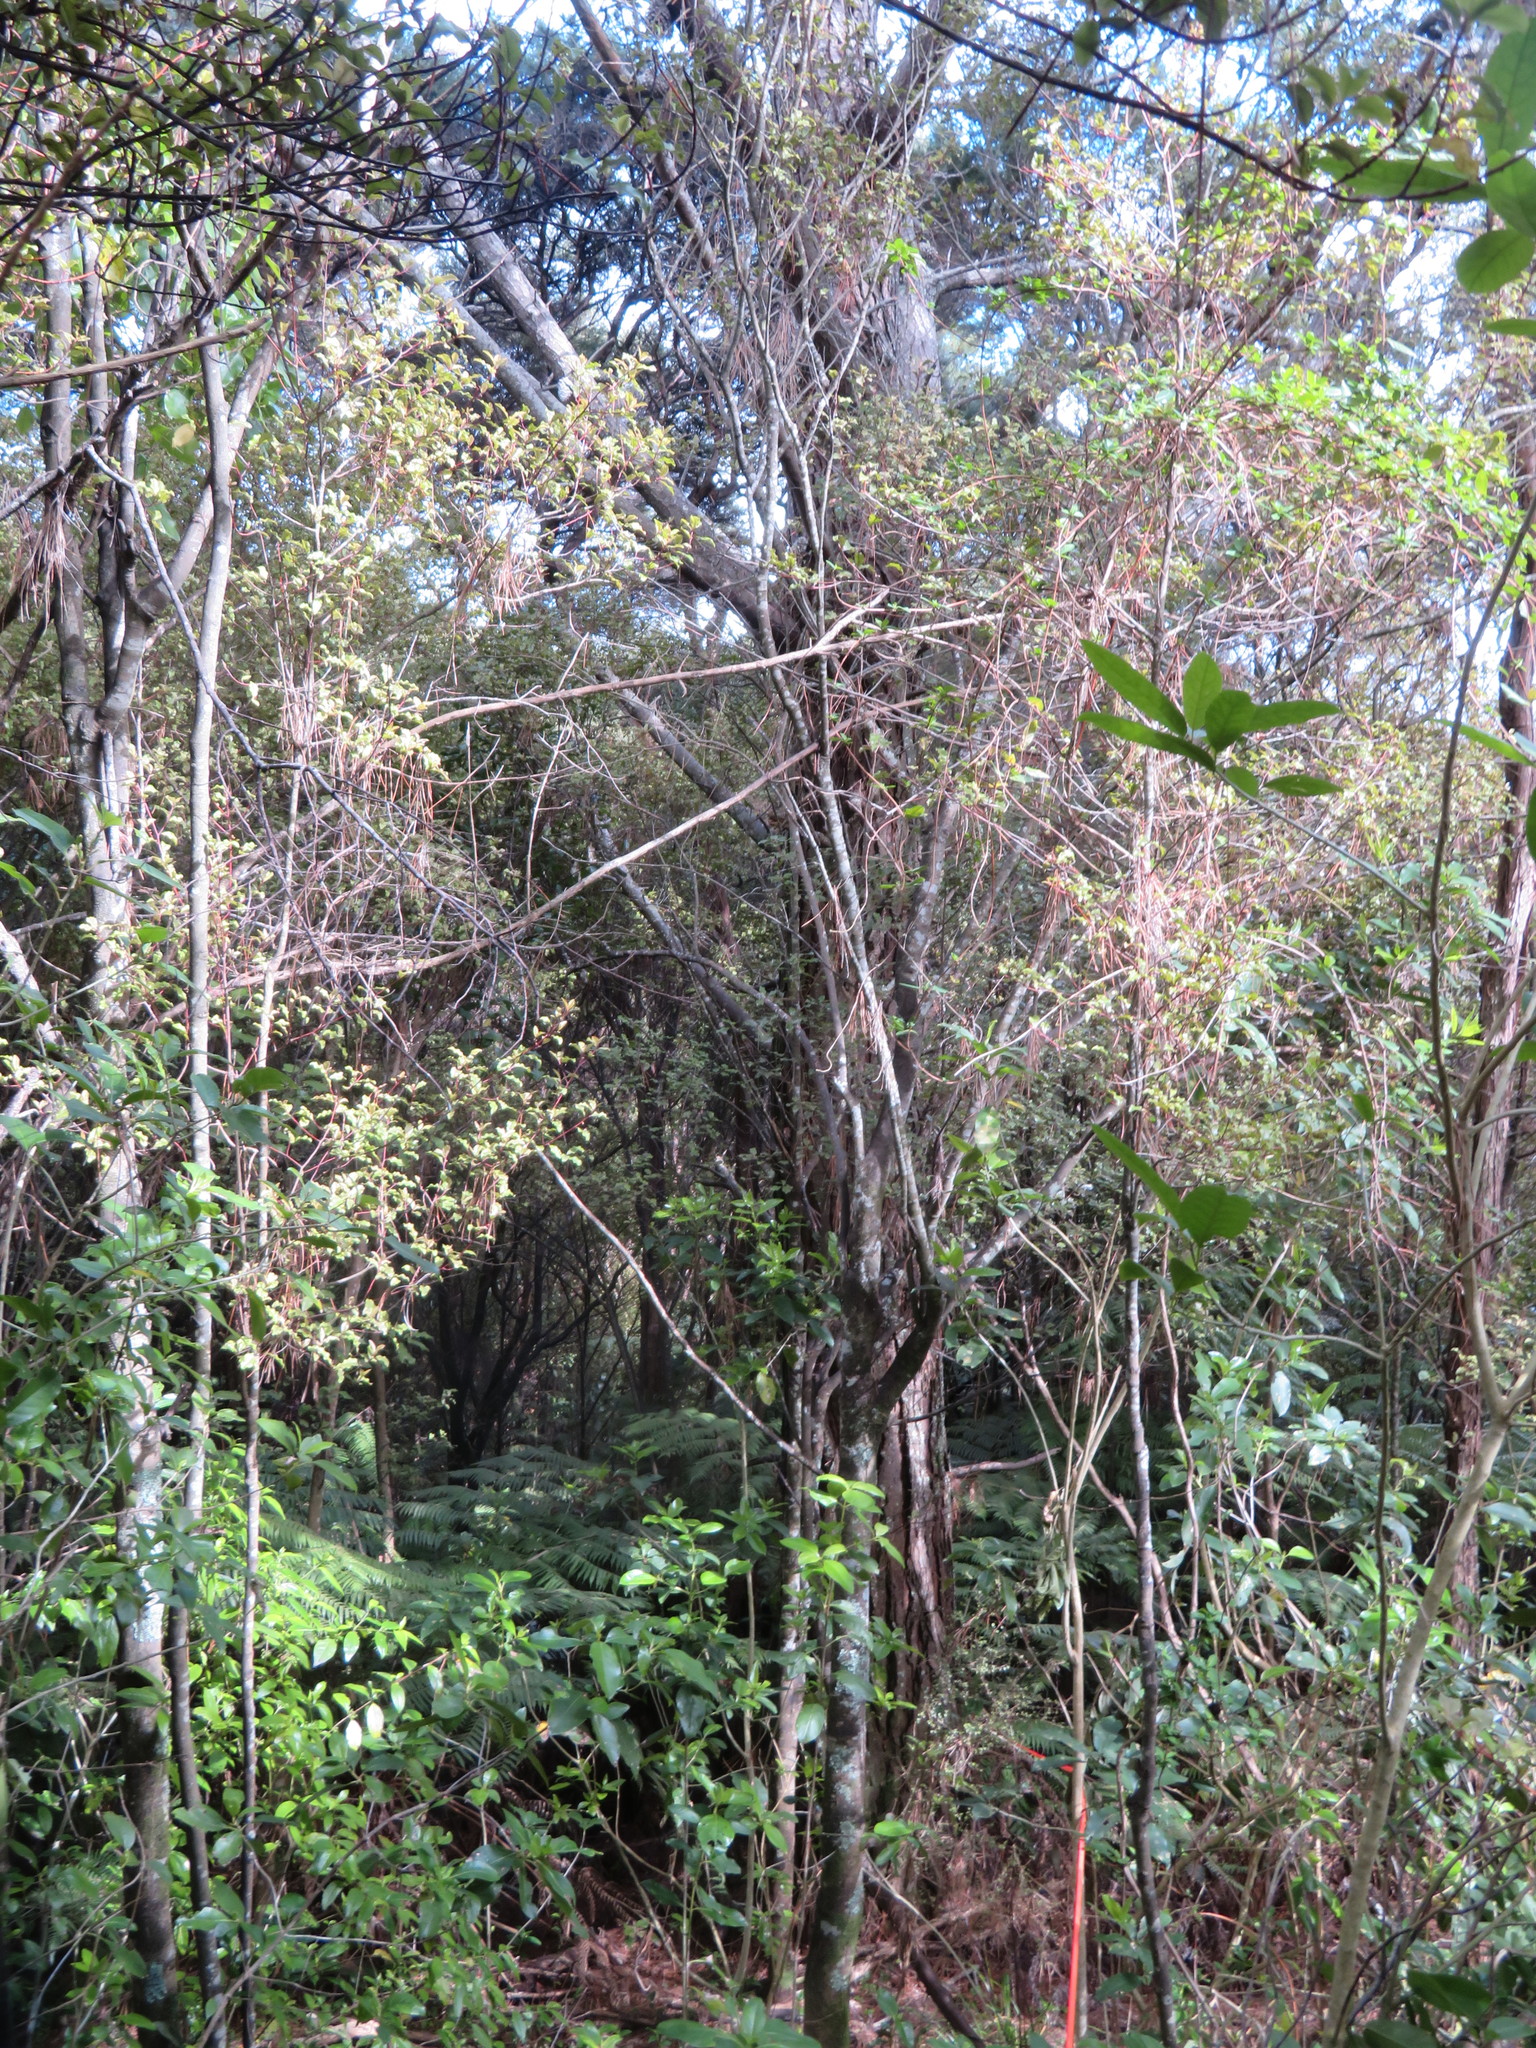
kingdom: Plantae
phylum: Tracheophyta
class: Magnoliopsida
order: Ericales
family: Primulaceae
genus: Myrsine
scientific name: Myrsine australis
